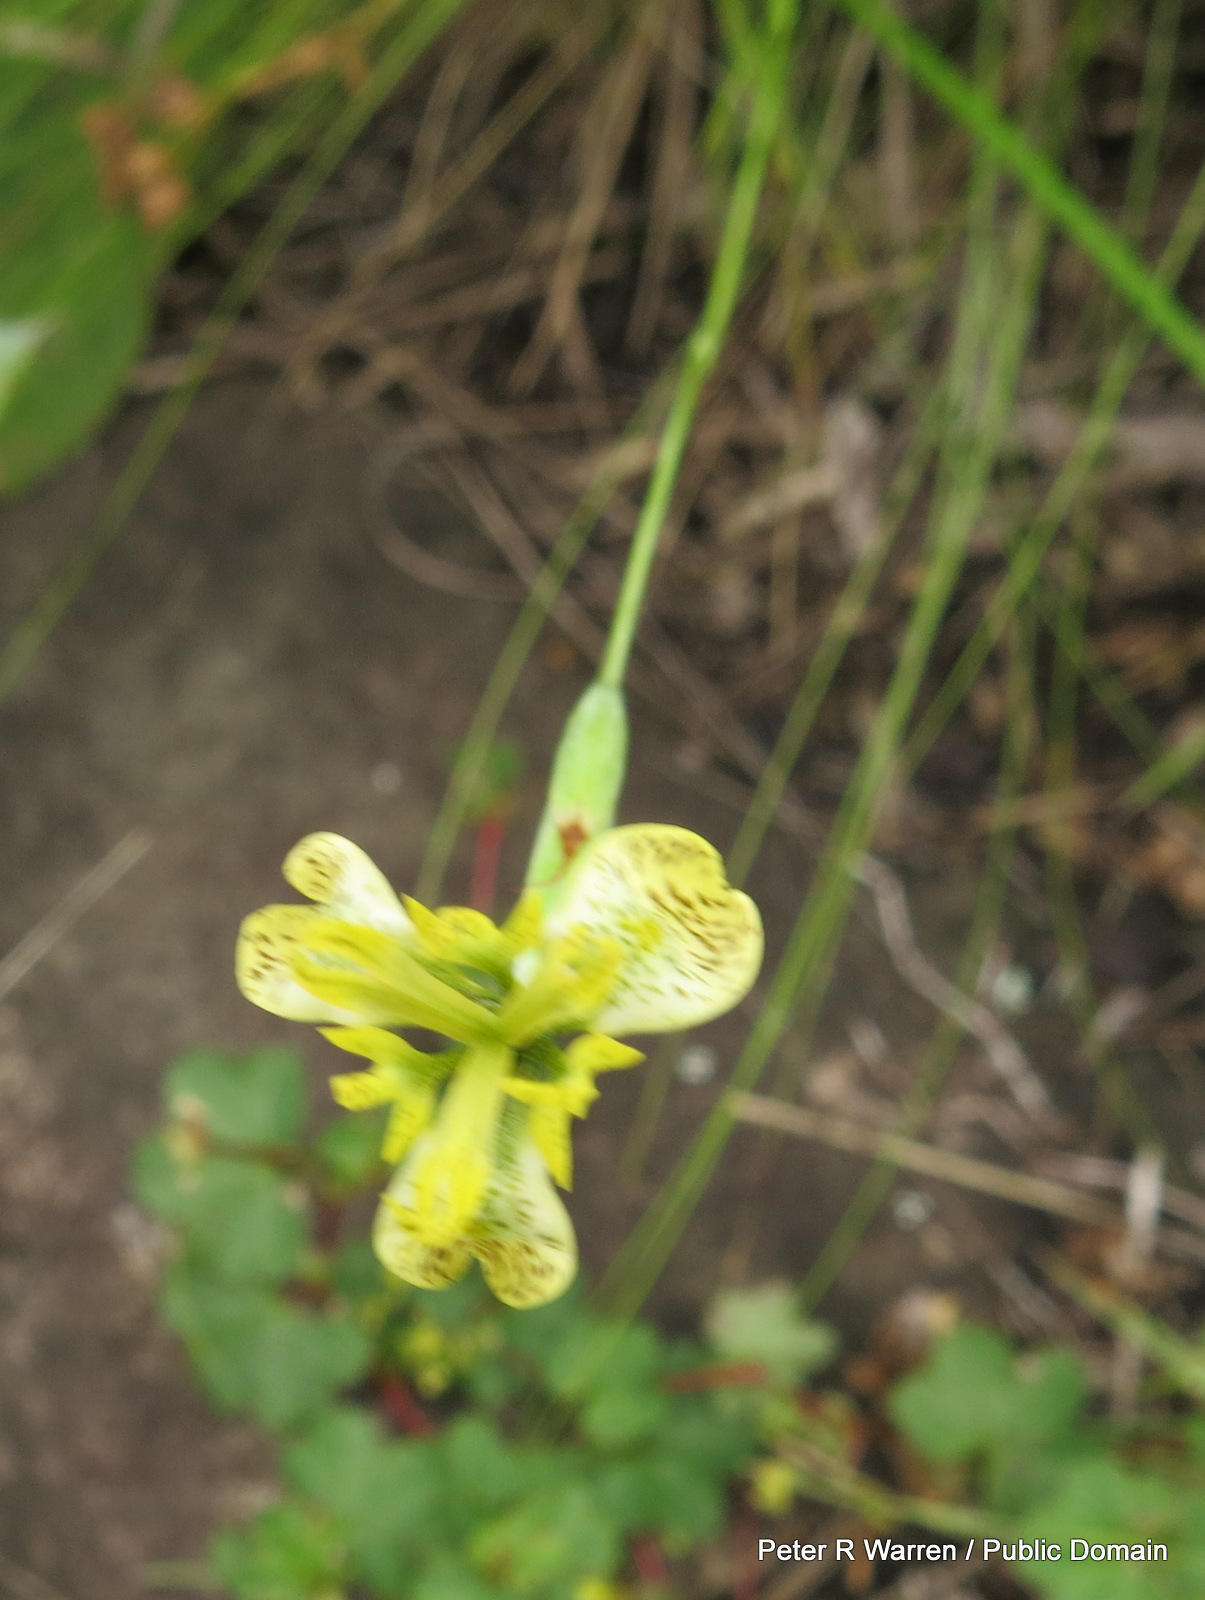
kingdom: Plantae
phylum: Tracheophyta
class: Liliopsida
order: Asparagales
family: Iridaceae
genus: Moraea
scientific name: Moraea trifida
